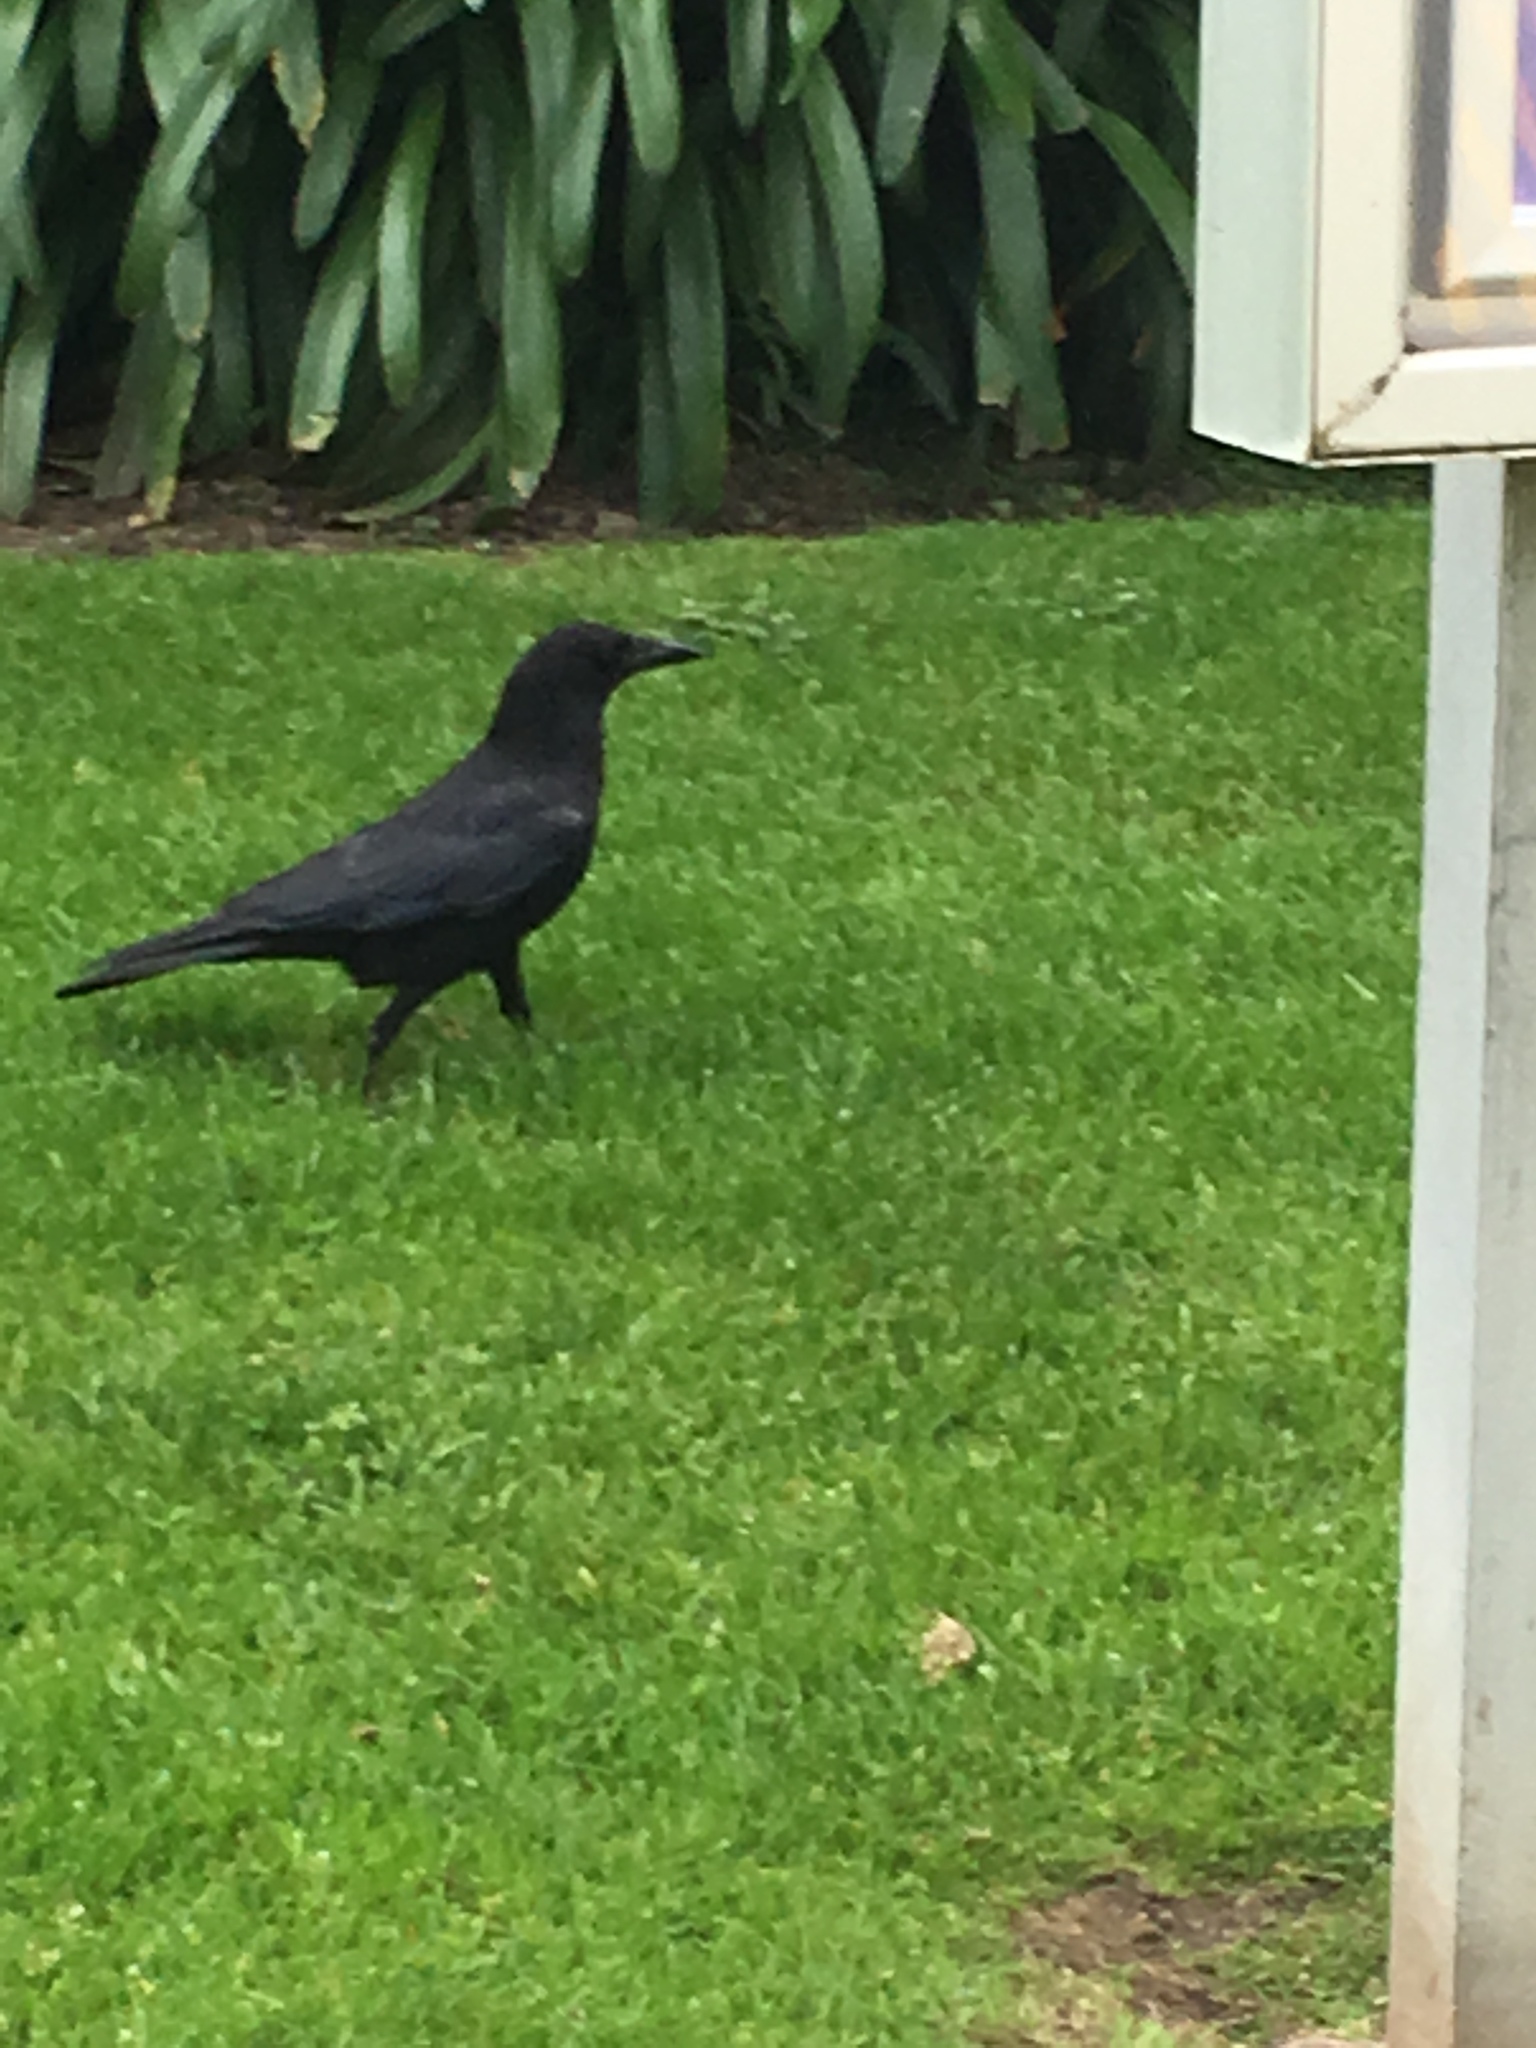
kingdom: Animalia
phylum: Chordata
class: Aves
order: Passeriformes
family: Corvidae
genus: Corvus
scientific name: Corvus brachyrhynchos
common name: American crow
